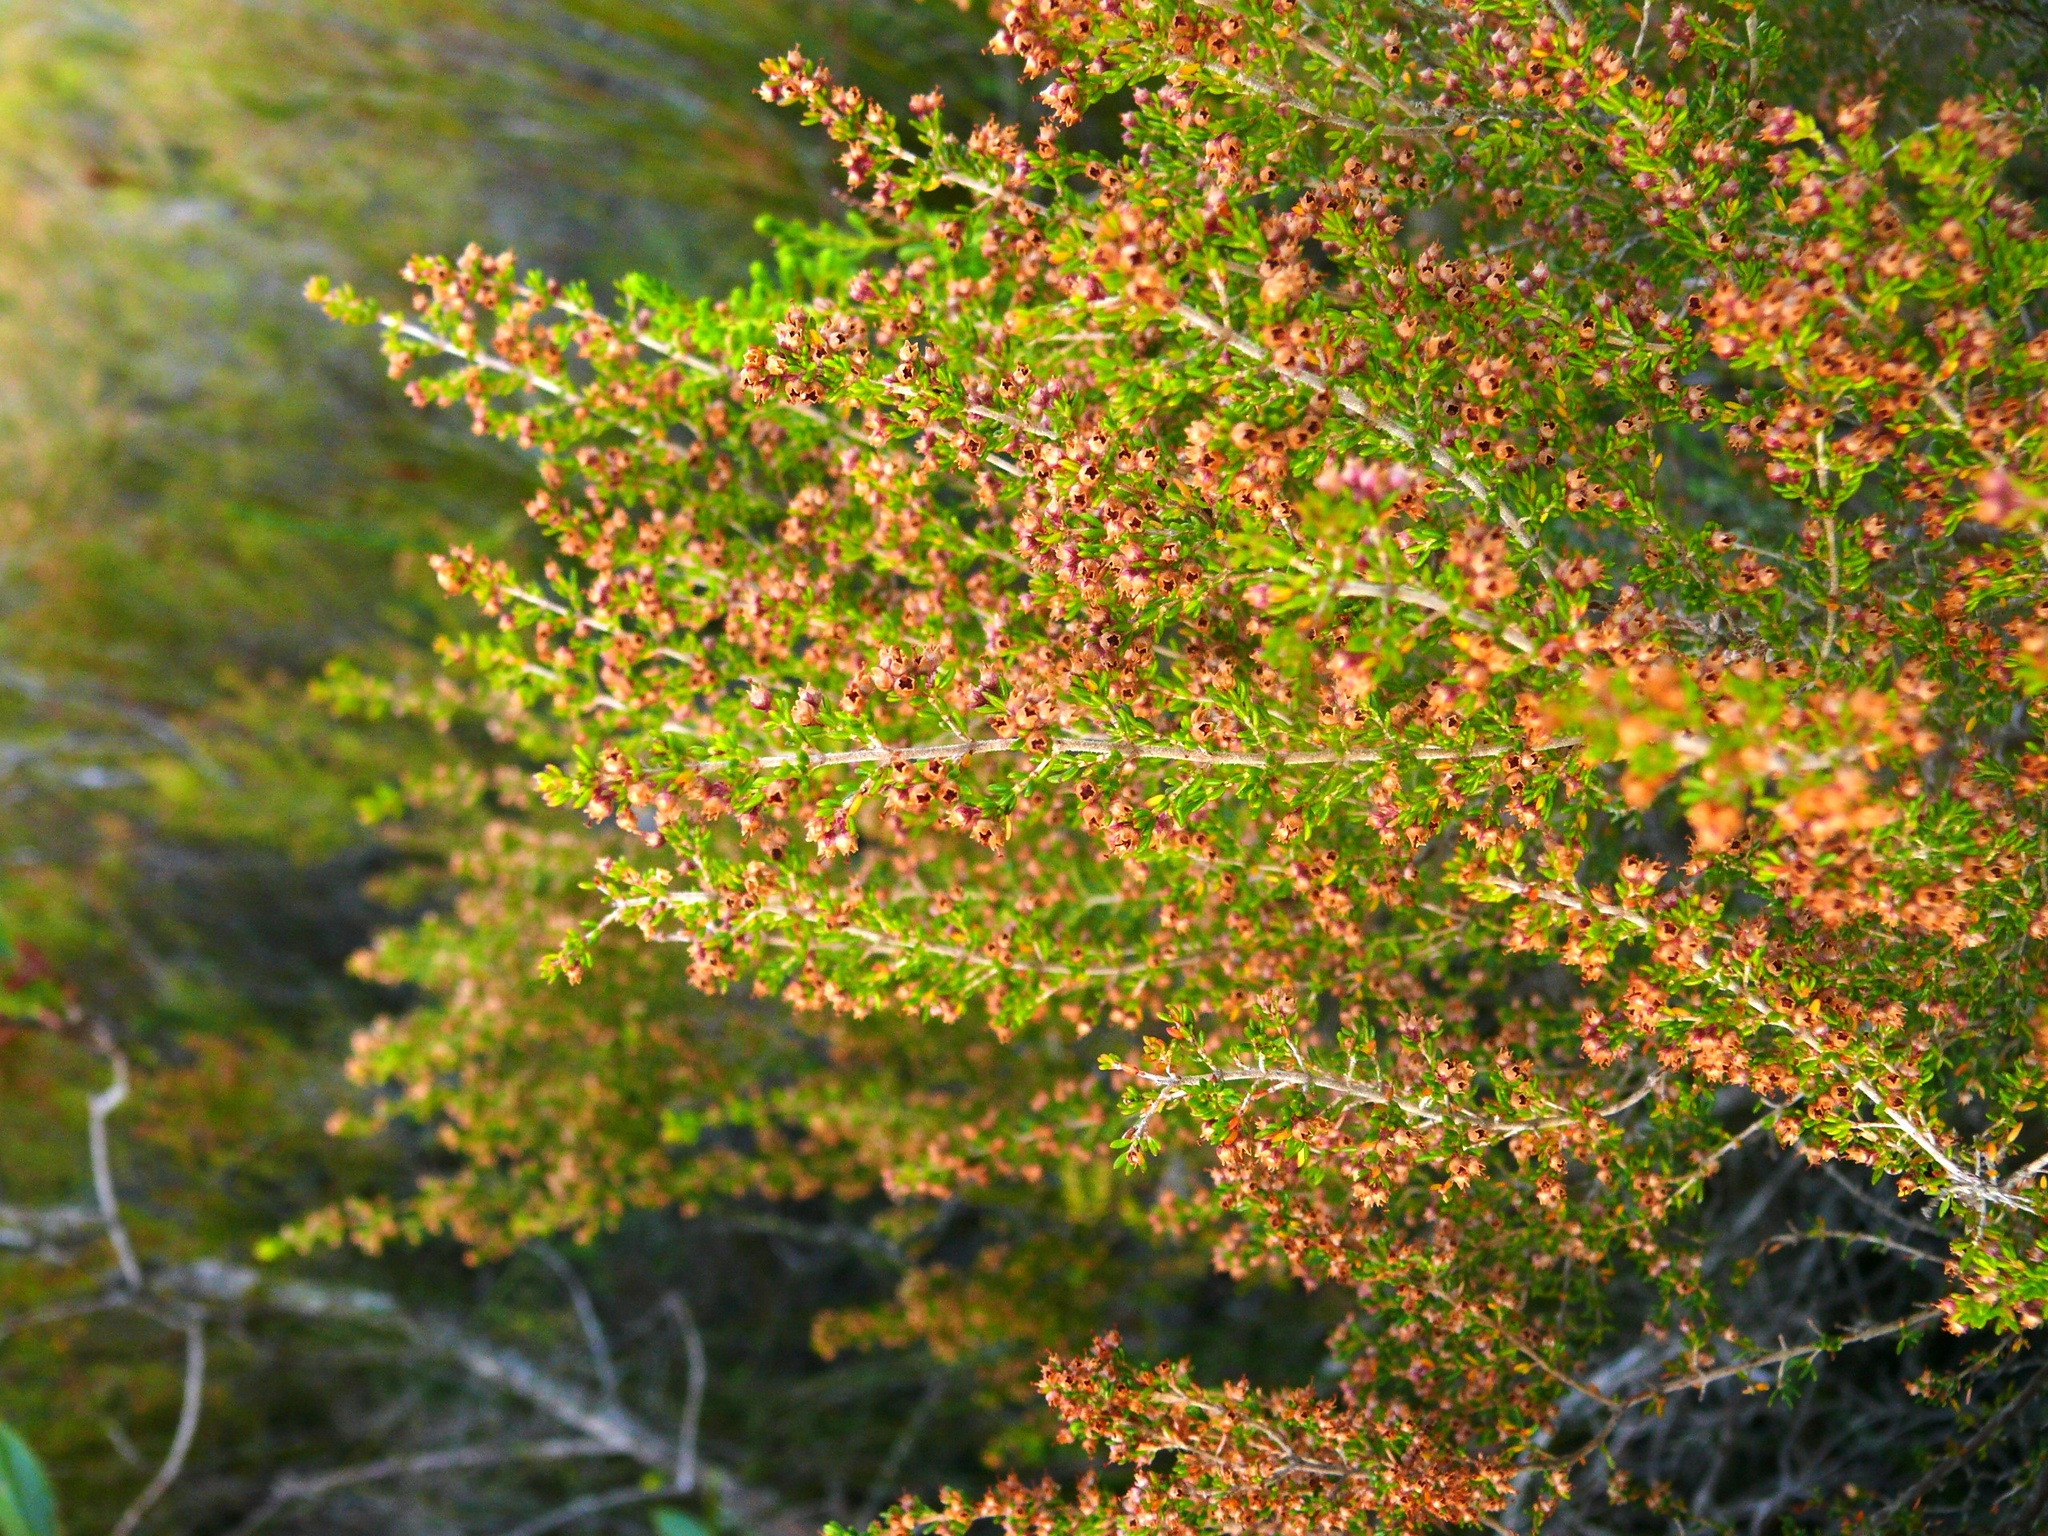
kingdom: Plantae
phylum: Tracheophyta
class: Magnoliopsida
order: Ericales
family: Ericaceae
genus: Erica
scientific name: Erica hispidula
